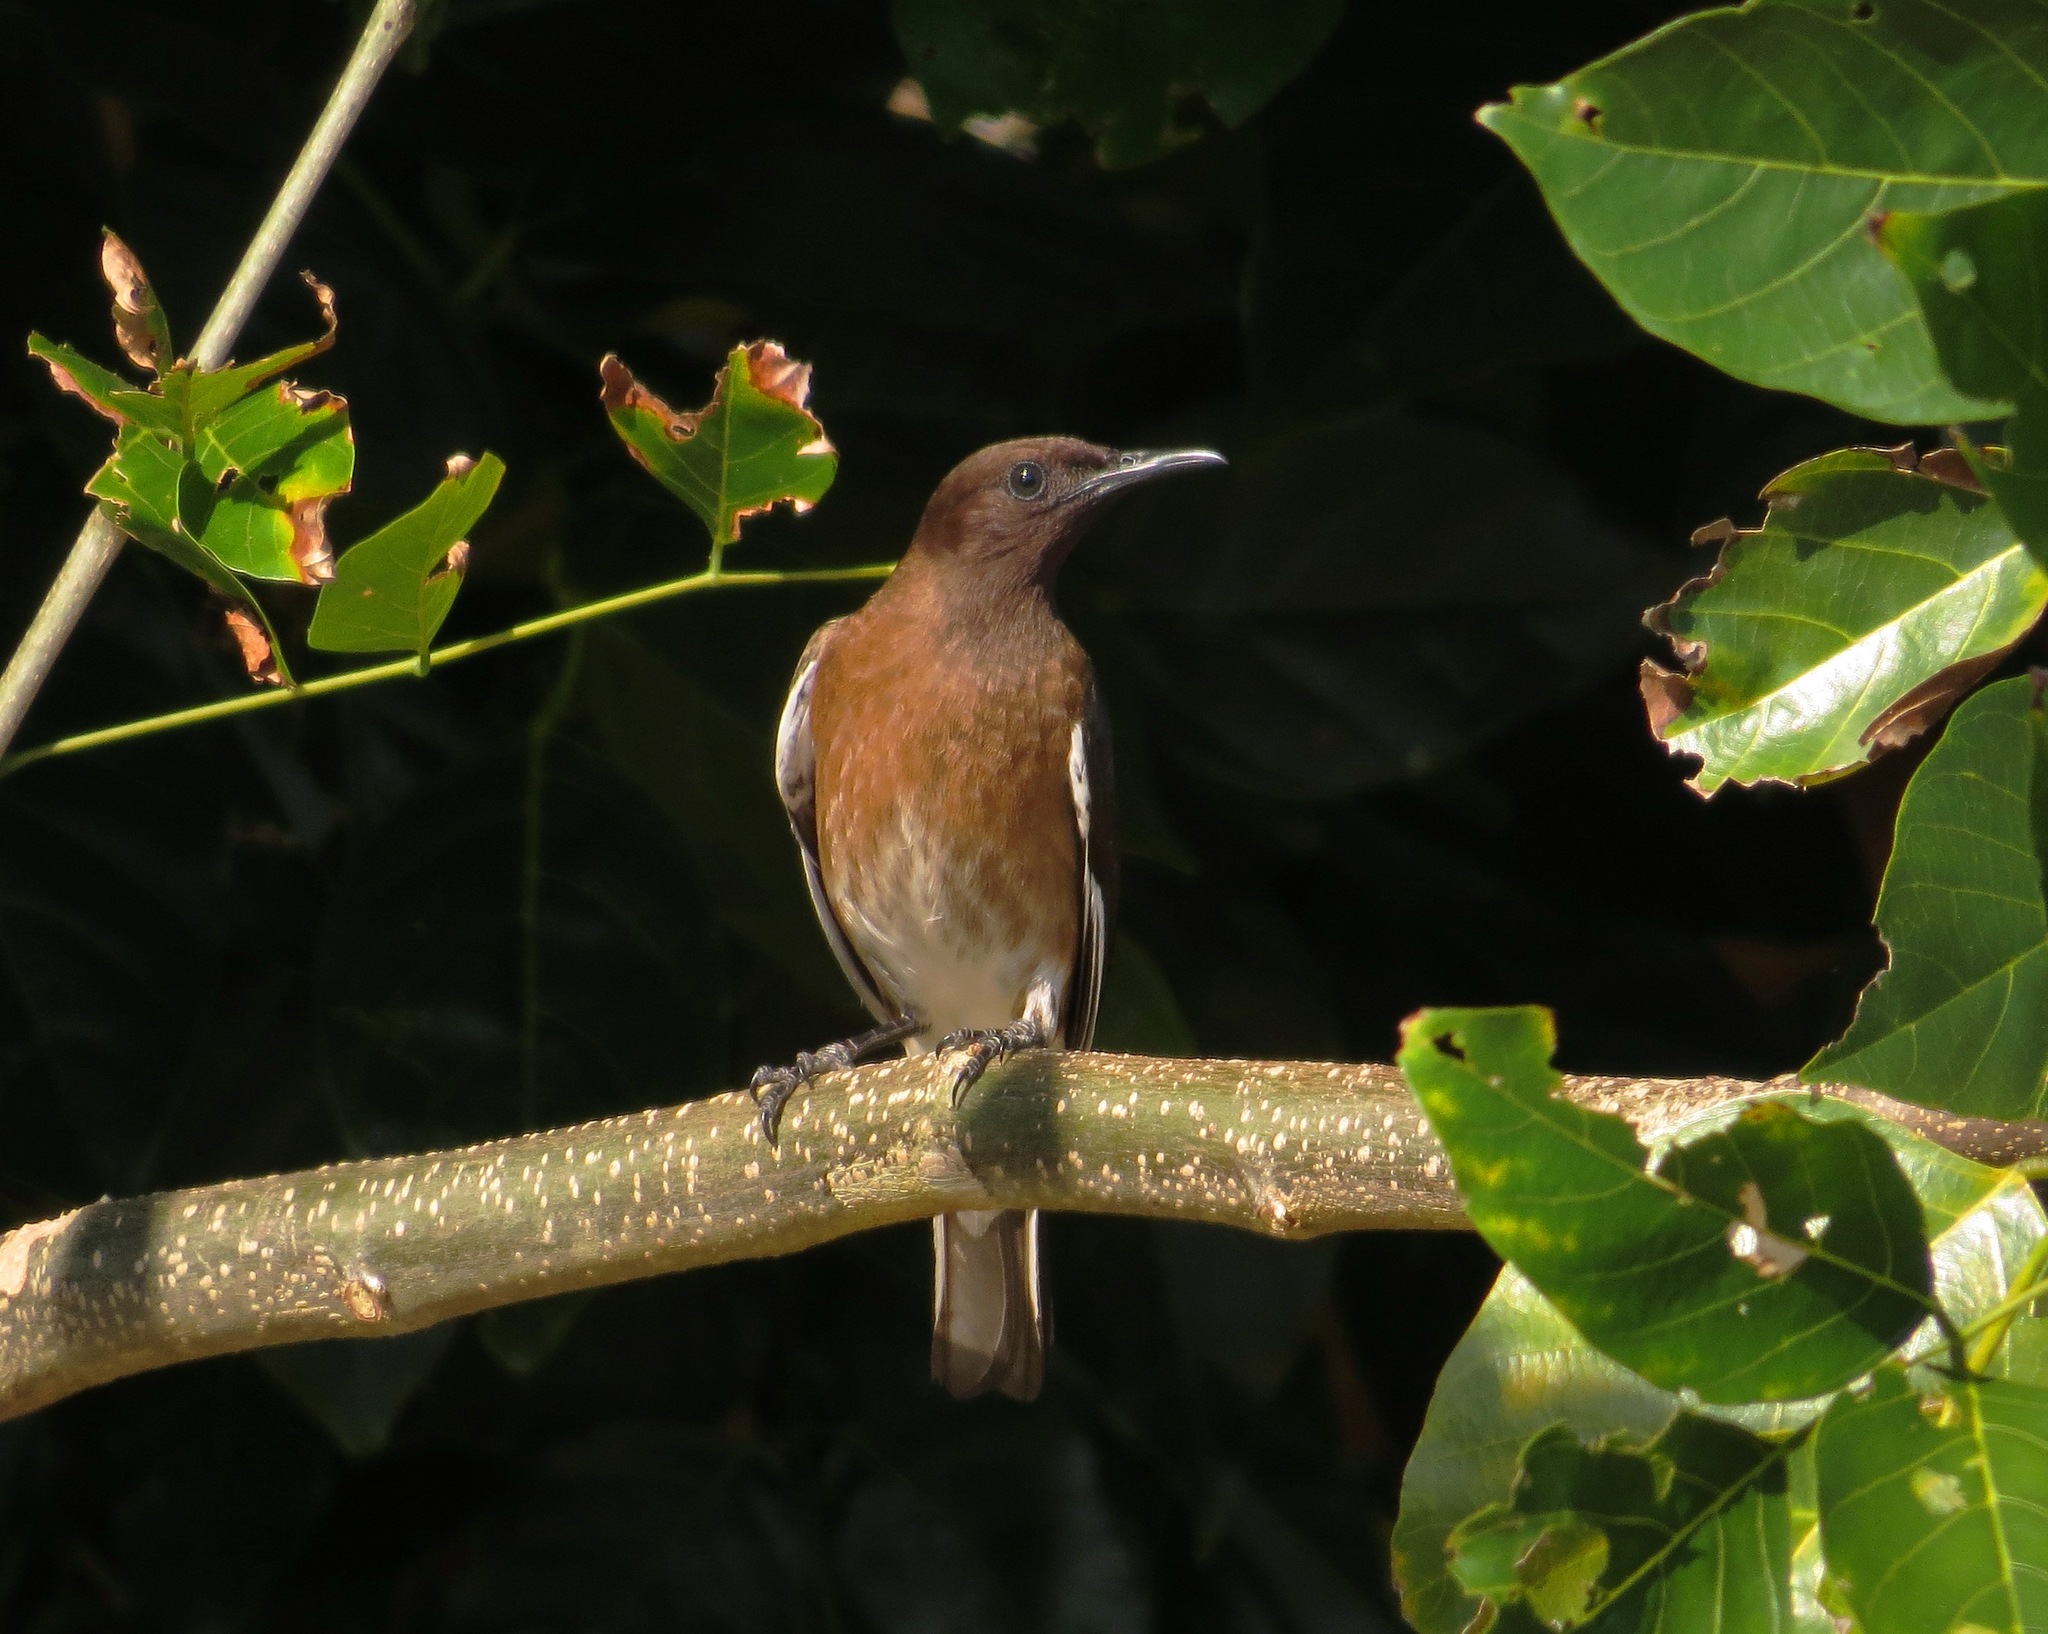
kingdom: Animalia
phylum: Chordata
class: Aves
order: Passeriformes
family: Sturnidae
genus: Hartlaubius
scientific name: Hartlaubius auratus
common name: Madagascar starling
